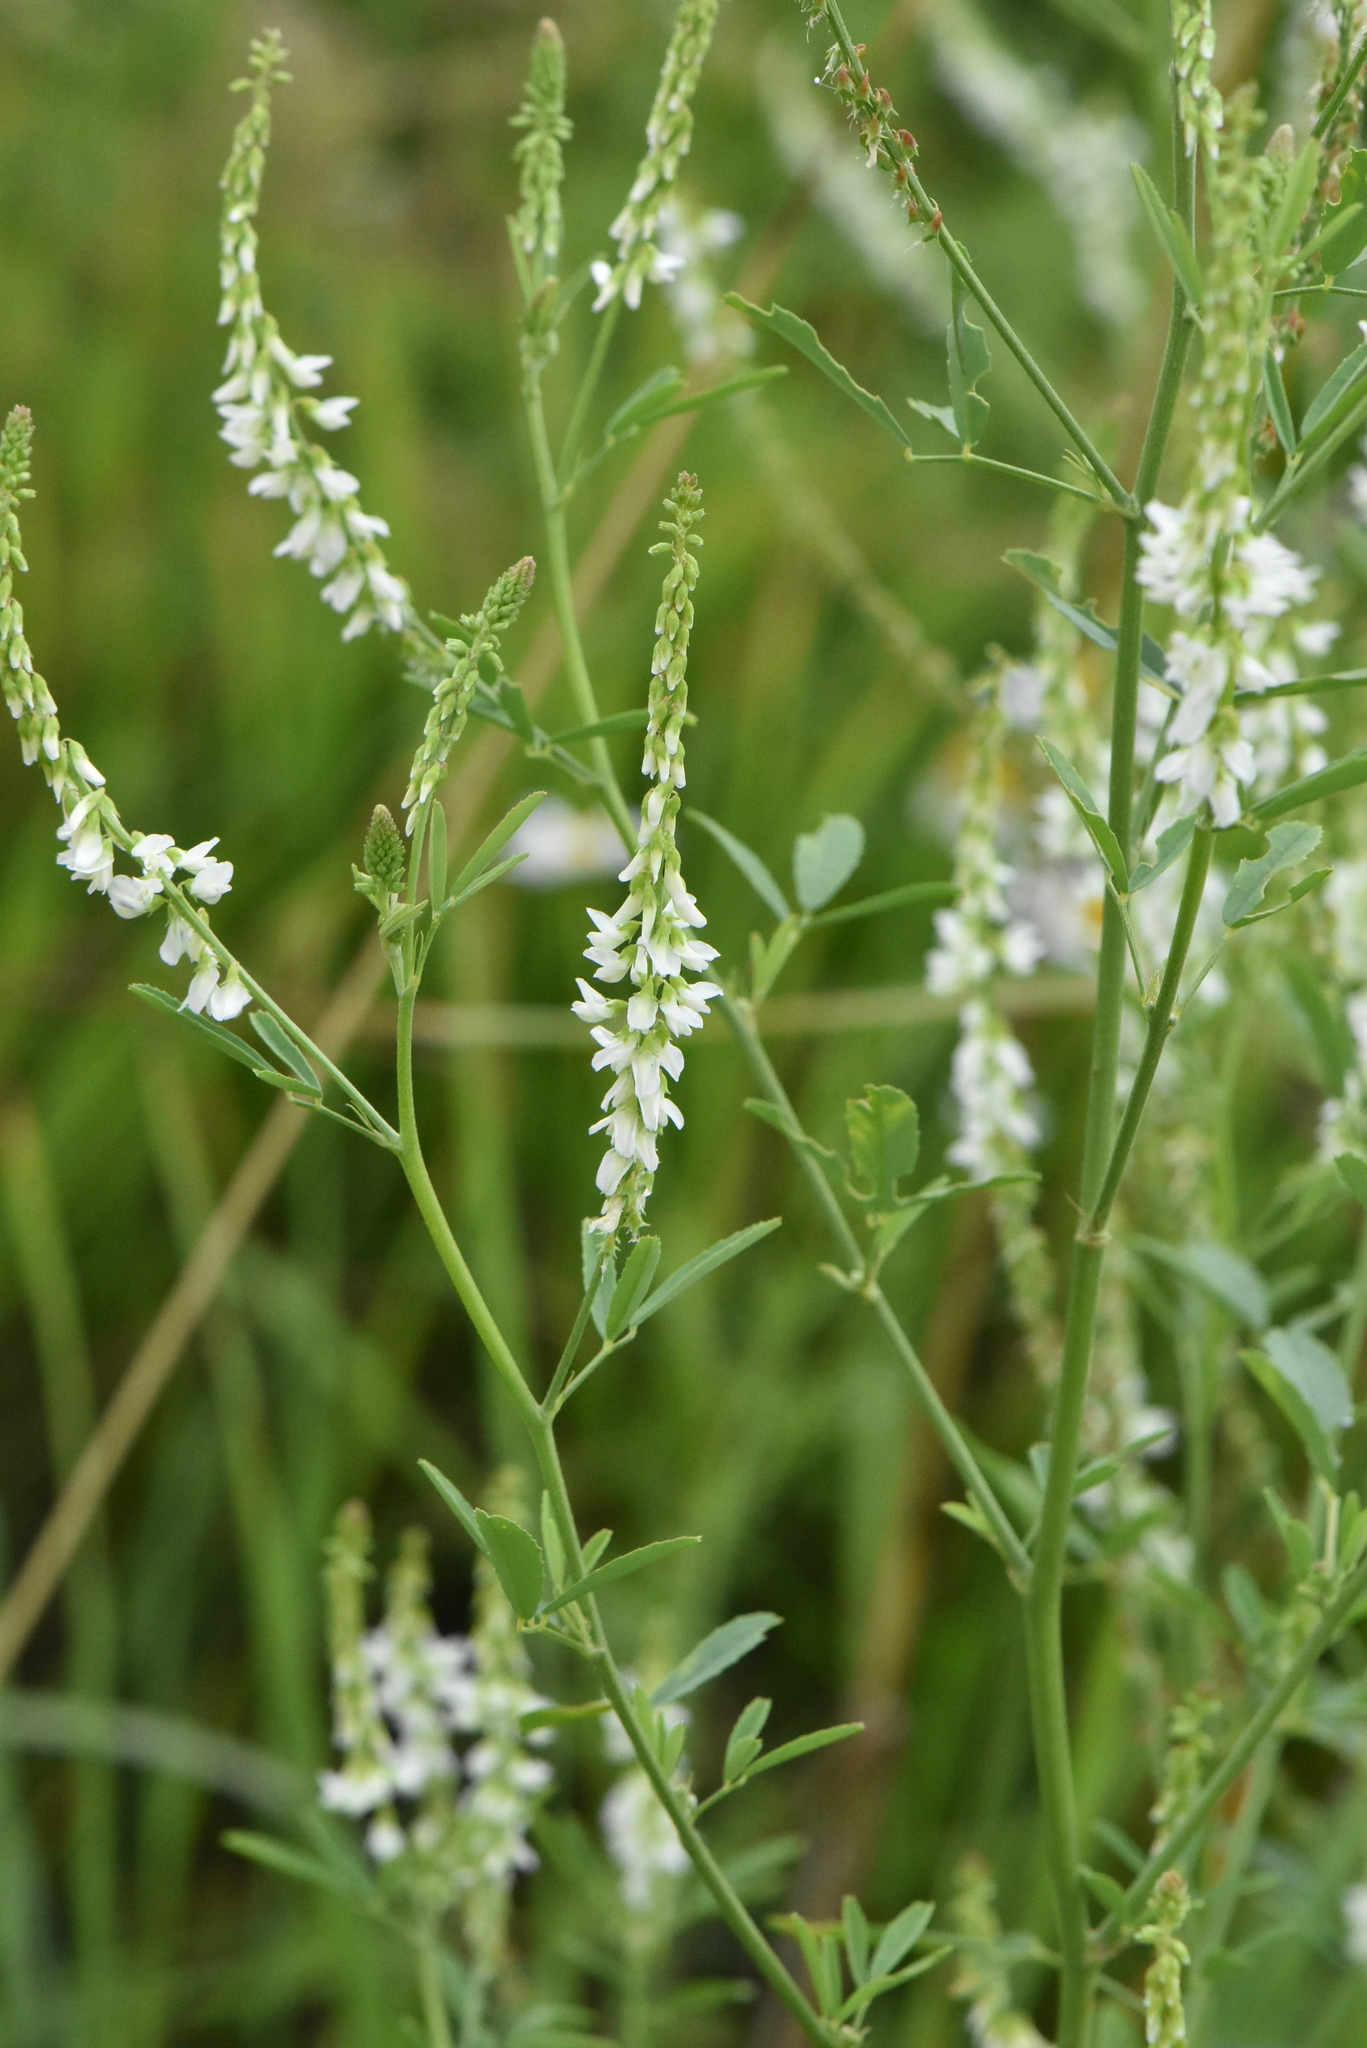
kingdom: Plantae
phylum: Tracheophyta
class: Magnoliopsida
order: Fabales
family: Fabaceae
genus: Melilotus
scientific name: Melilotus albus
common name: White melilot
